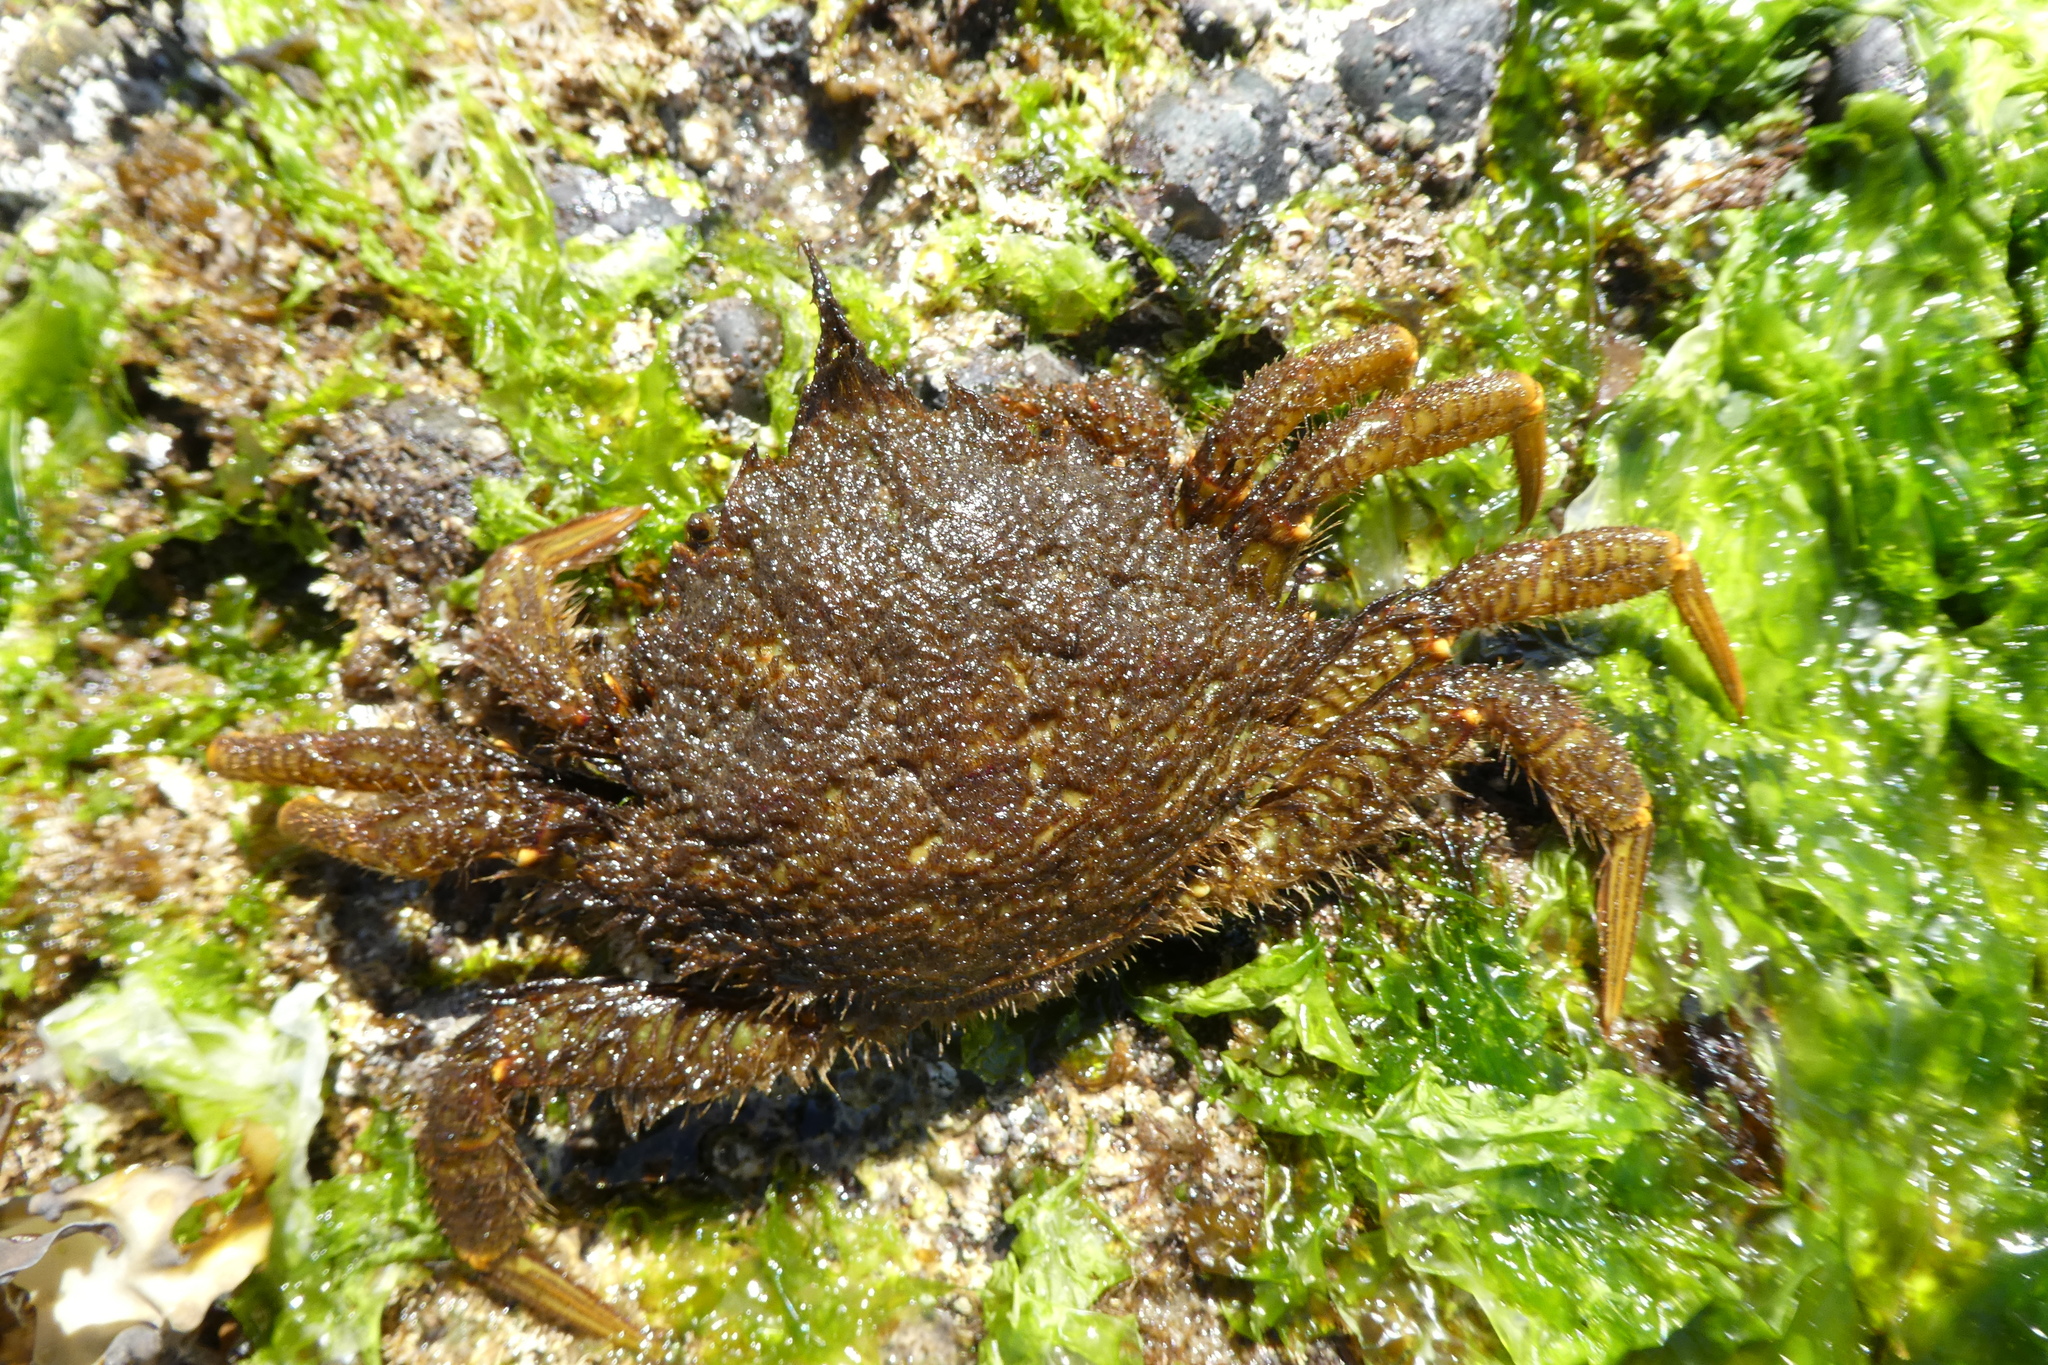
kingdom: Animalia
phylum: Arthropoda
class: Malacostraca
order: Decapoda
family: Cheiragonidae
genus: Telmessus
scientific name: Telmessus cheiragonus
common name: Helmet crab
